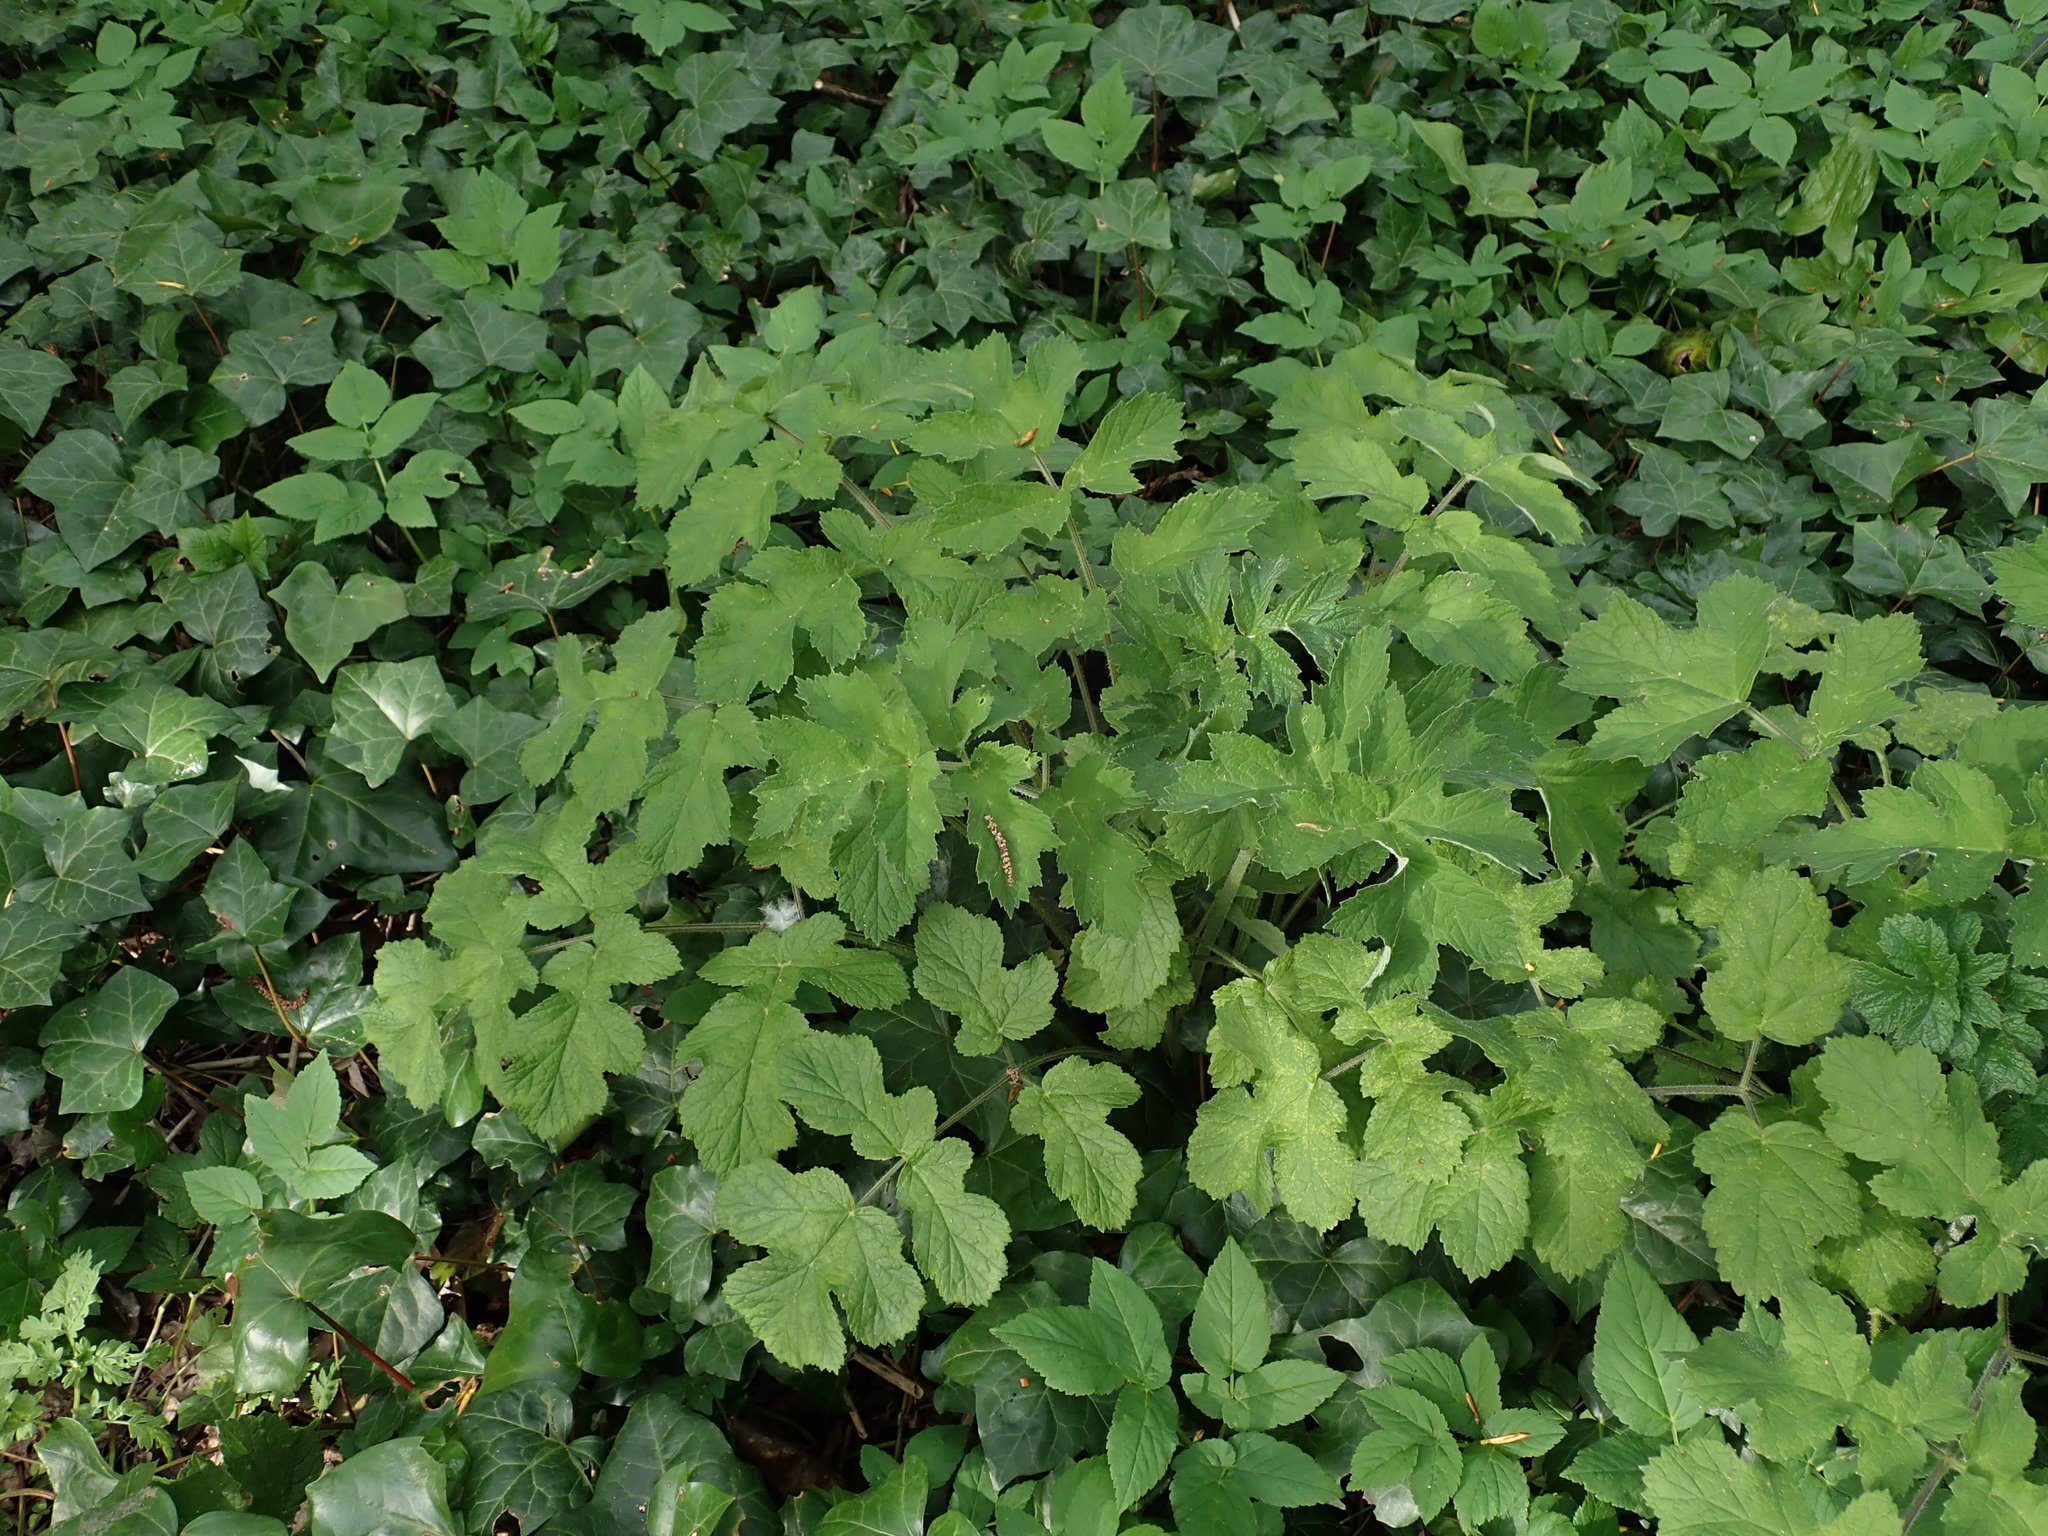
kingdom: Plantae
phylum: Tracheophyta
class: Magnoliopsida
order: Apiales
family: Apiaceae
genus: Heracleum
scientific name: Heracleum sphondylium
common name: Hogweed
